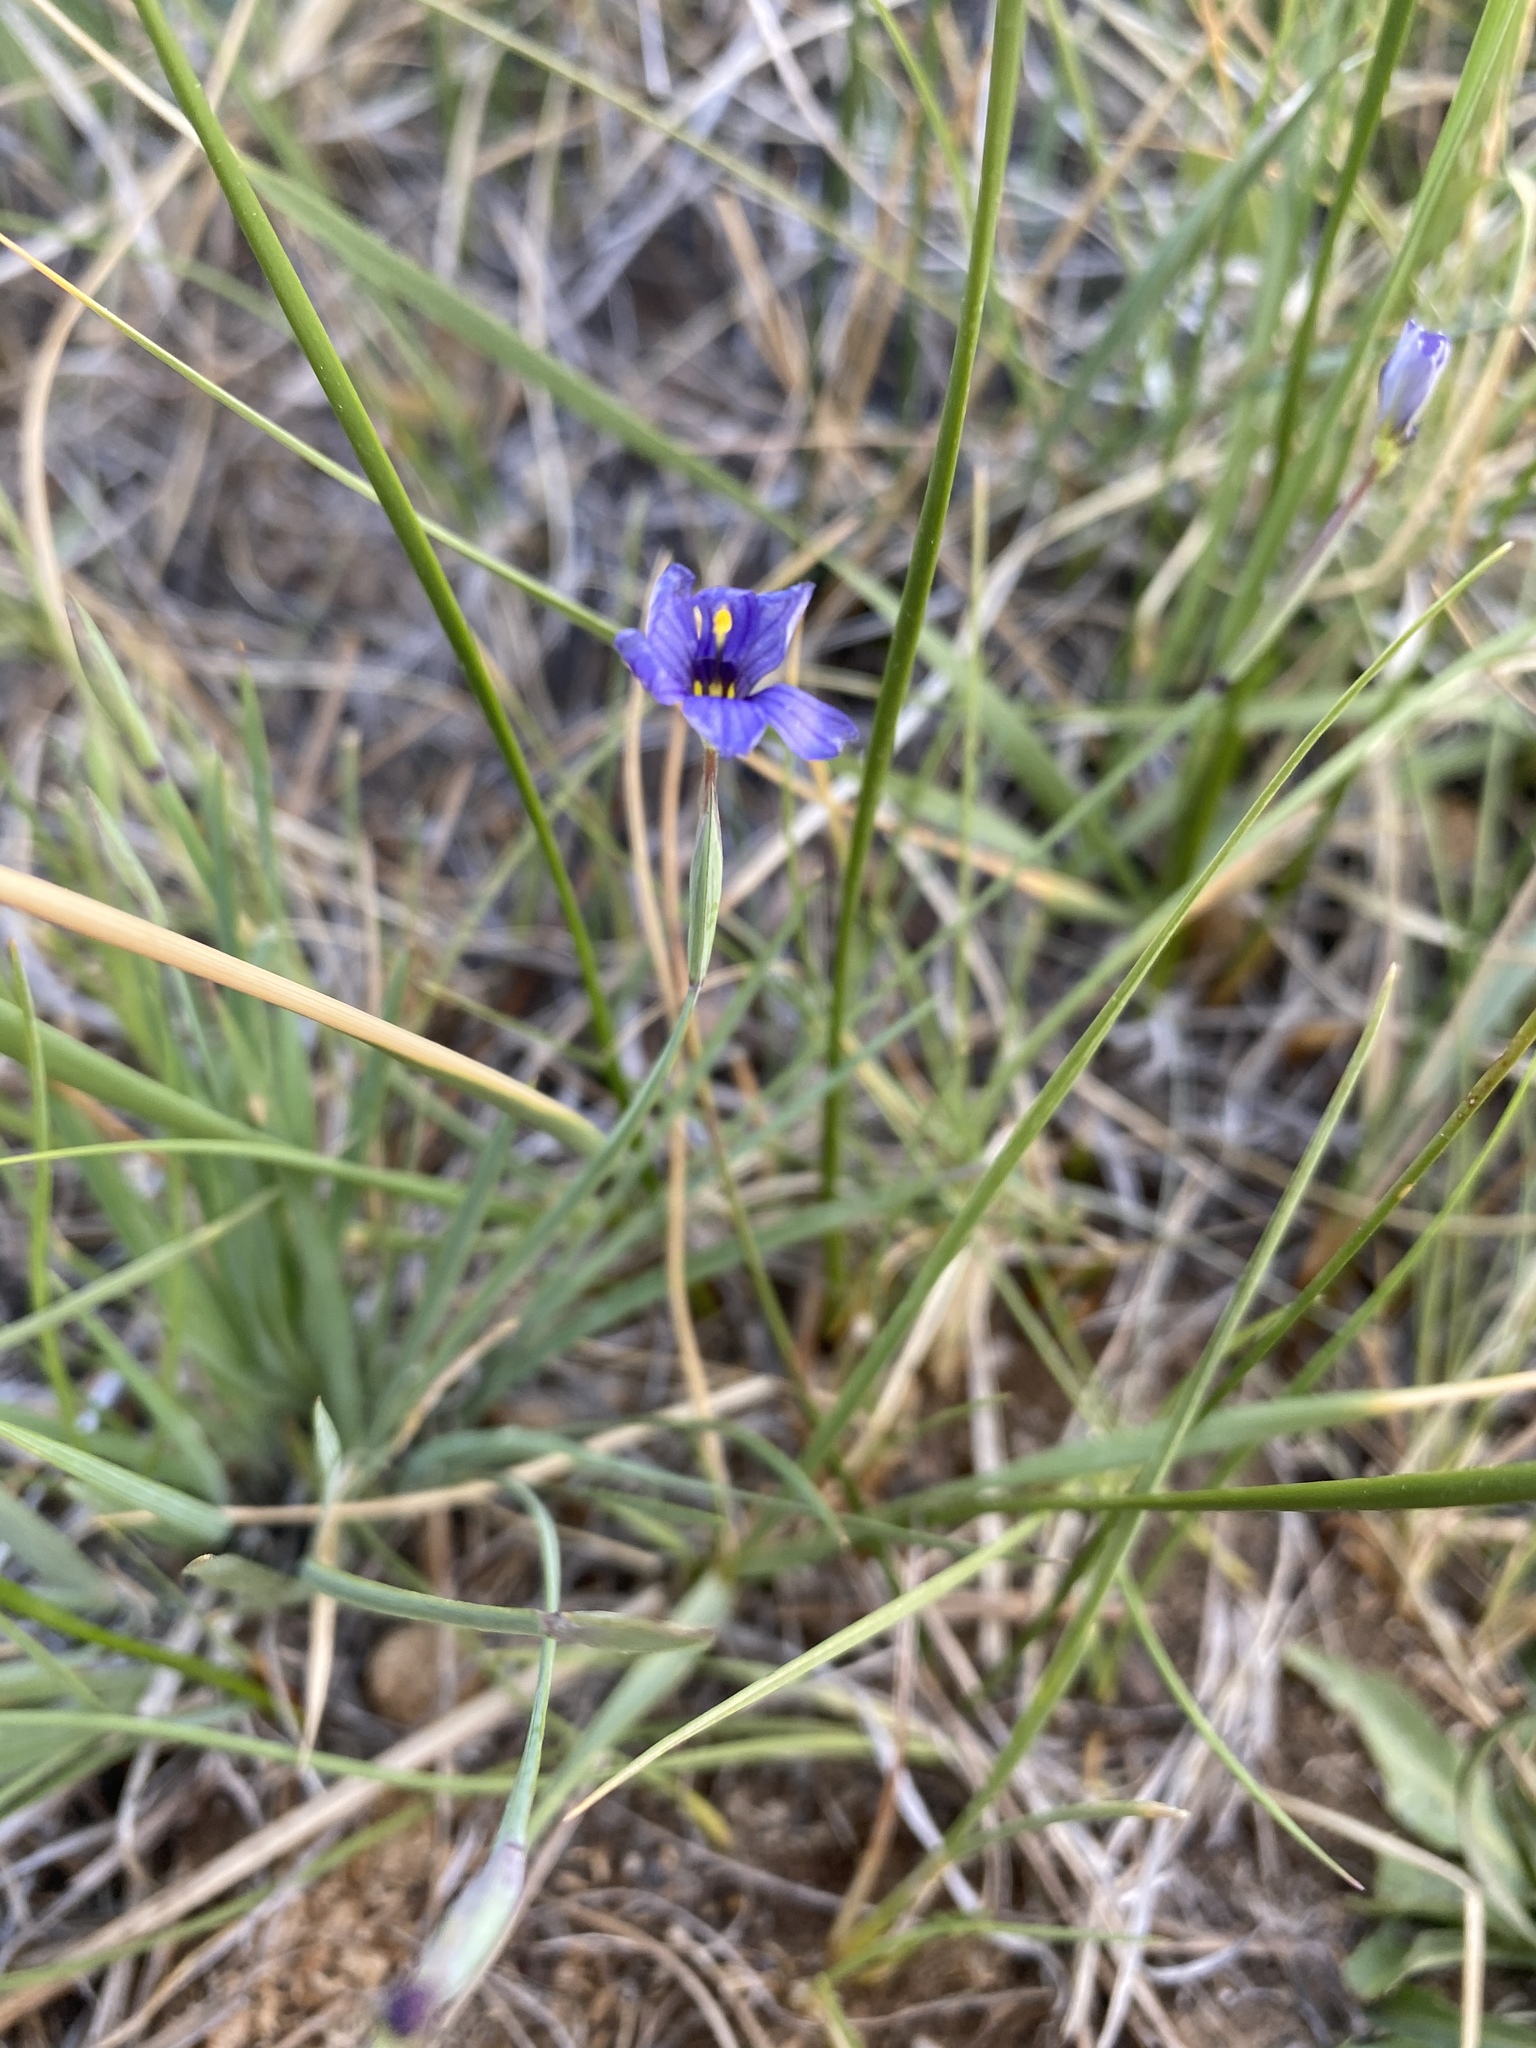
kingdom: Plantae
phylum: Tracheophyta
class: Liliopsida
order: Asparagales
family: Iridaceae
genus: Sisyrinchium
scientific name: Sisyrinchium halophilum
